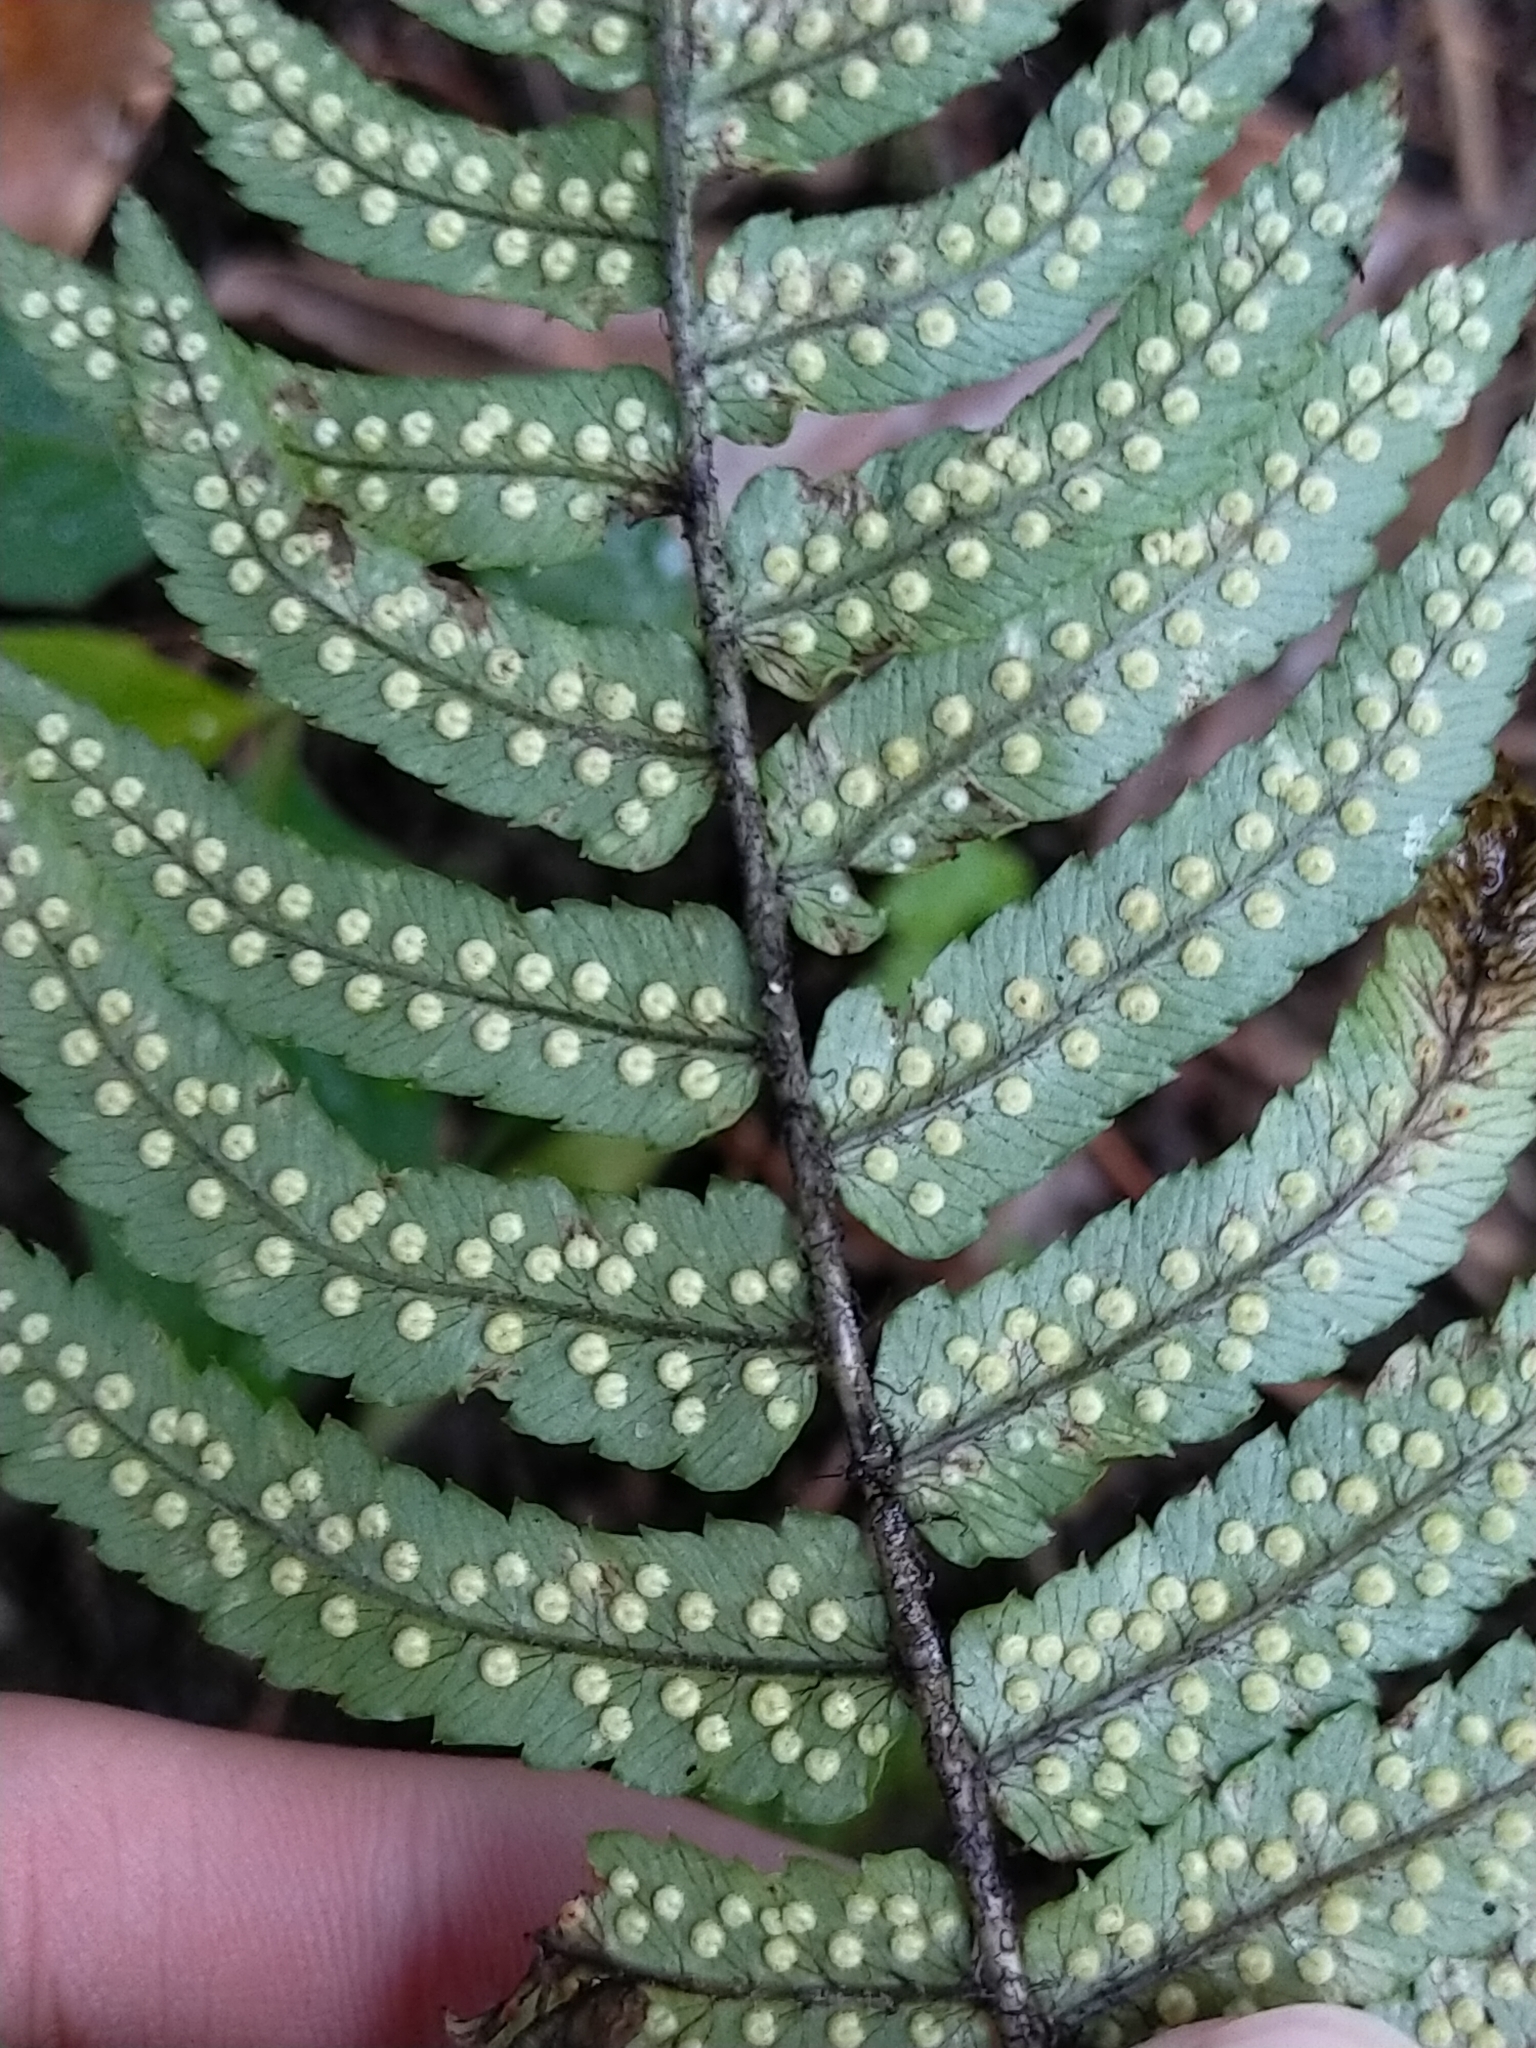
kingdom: Plantae
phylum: Tracheophyta
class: Polypodiopsida
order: Polypodiales
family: Dryopteridaceae
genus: Dryopteris
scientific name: Dryopteris cycadina
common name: Shaggy wood fern
